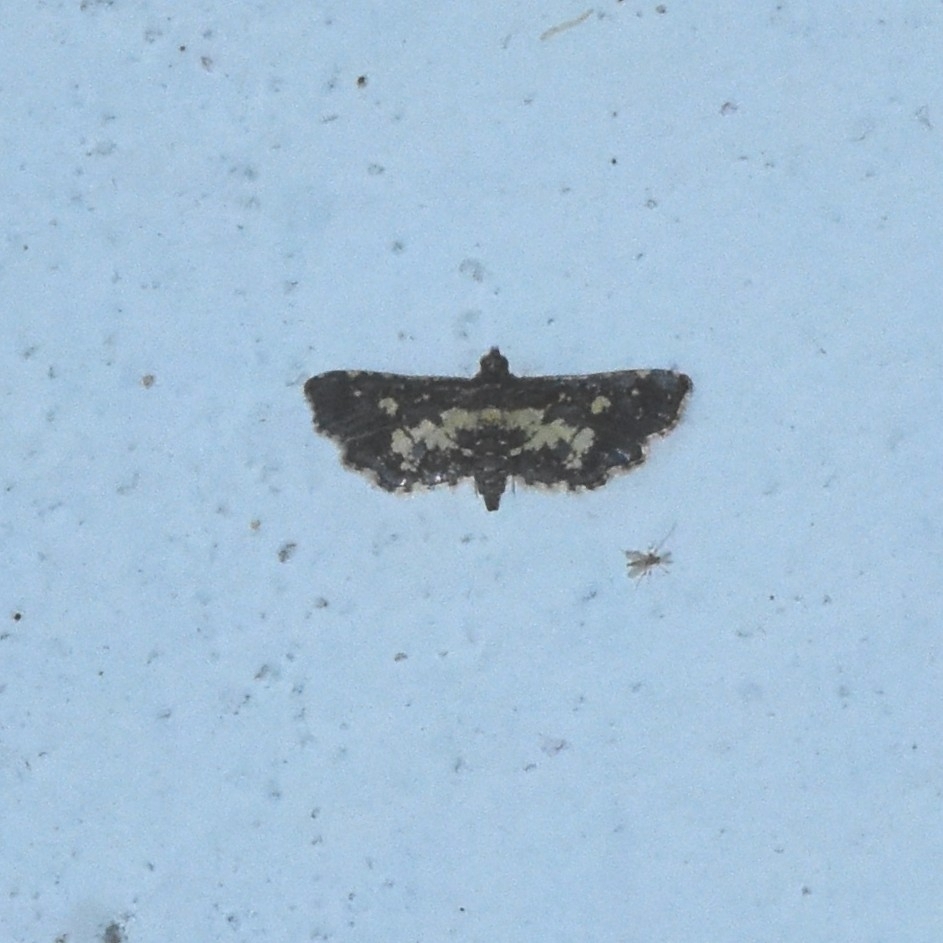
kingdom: Animalia
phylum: Arthropoda
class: Insecta
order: Lepidoptera
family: Crambidae
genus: Eurrhyparodes
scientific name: Eurrhyparodes bracteolalis
